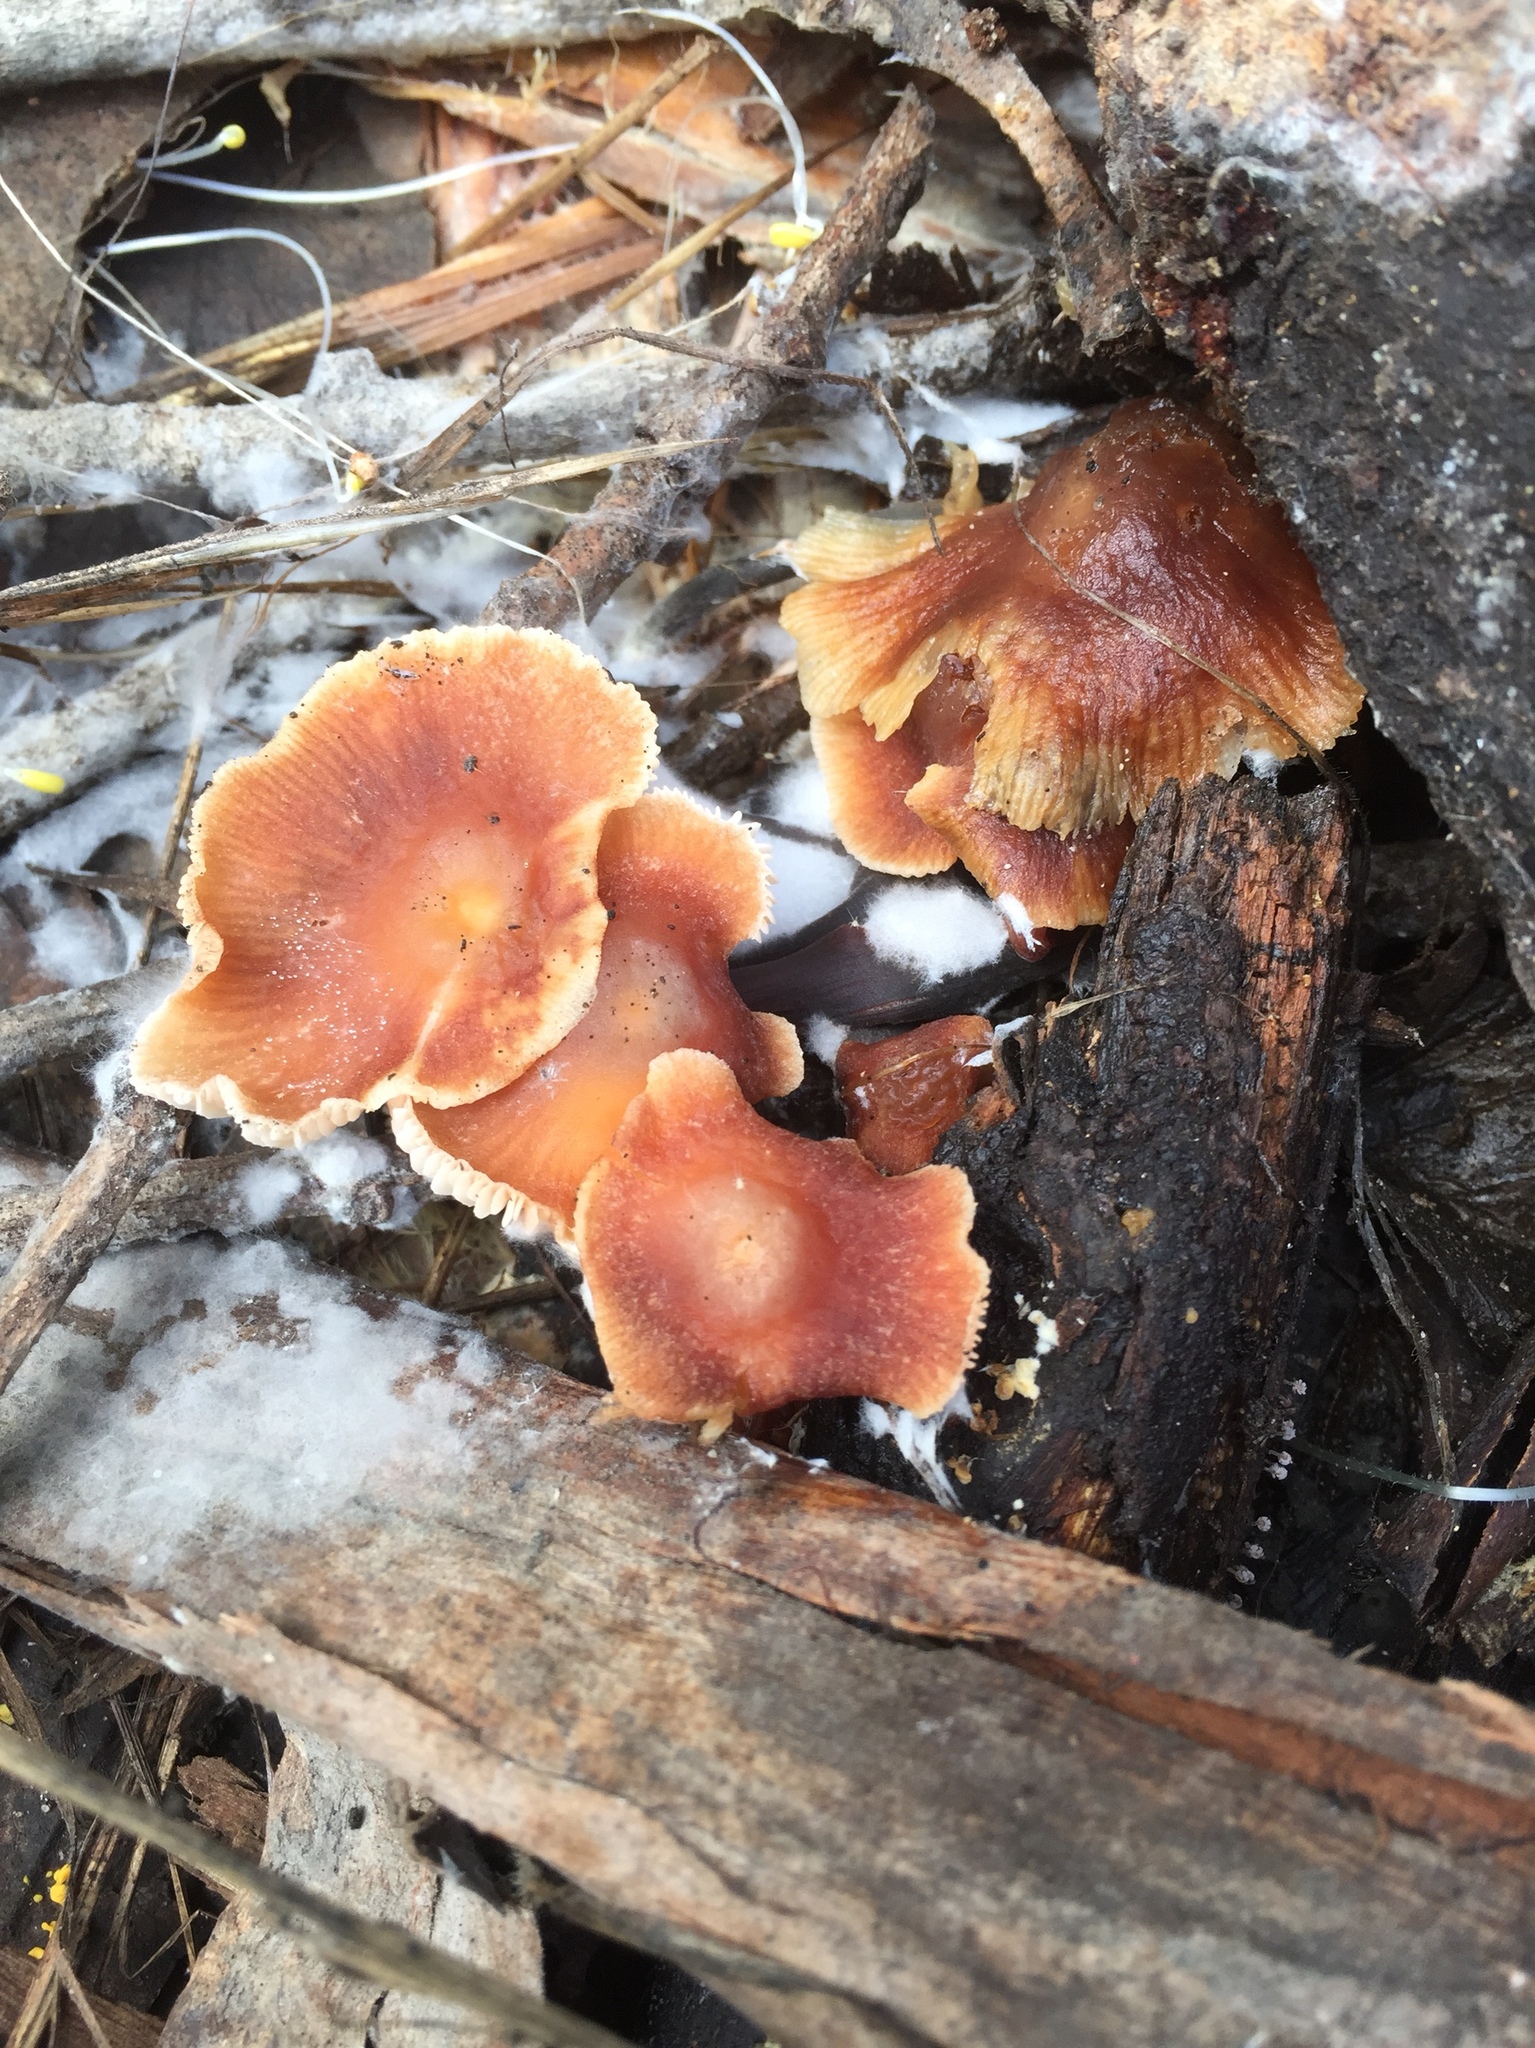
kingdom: Fungi
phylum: Basidiomycota
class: Agaricomycetes
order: Agaricales
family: Omphalotaceae
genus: Gymnopus
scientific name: Gymnopus brassicolens
